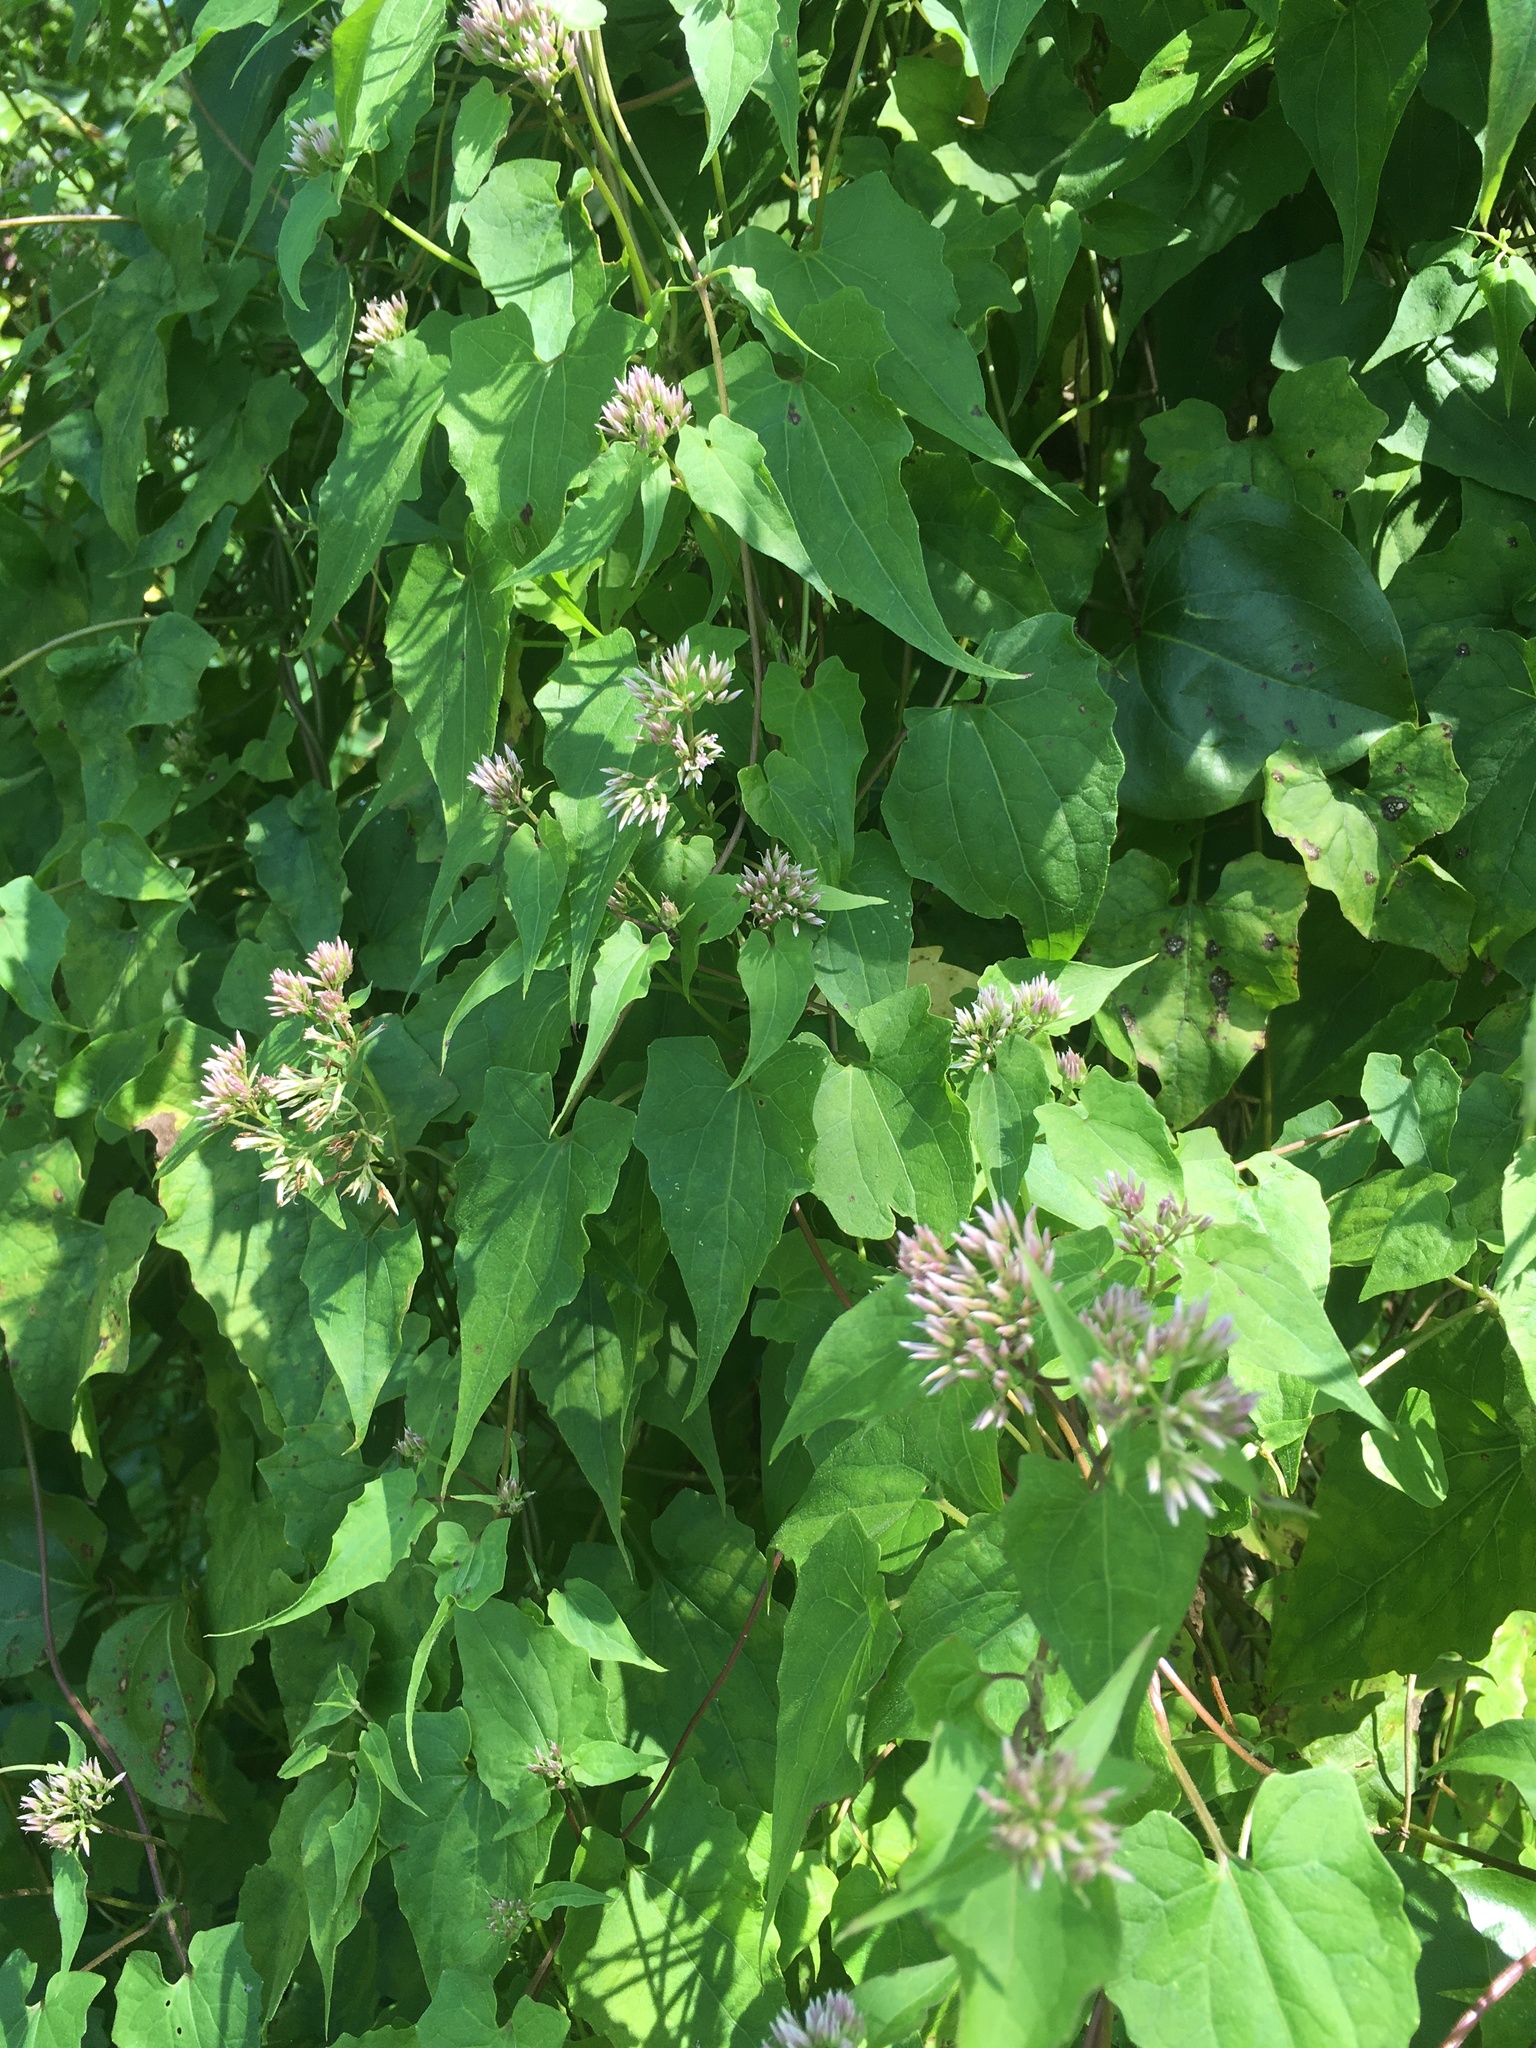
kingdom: Plantae
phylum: Tracheophyta
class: Magnoliopsida
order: Asterales
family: Asteraceae
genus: Mikania
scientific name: Mikania scandens
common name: Climbing hempvine
